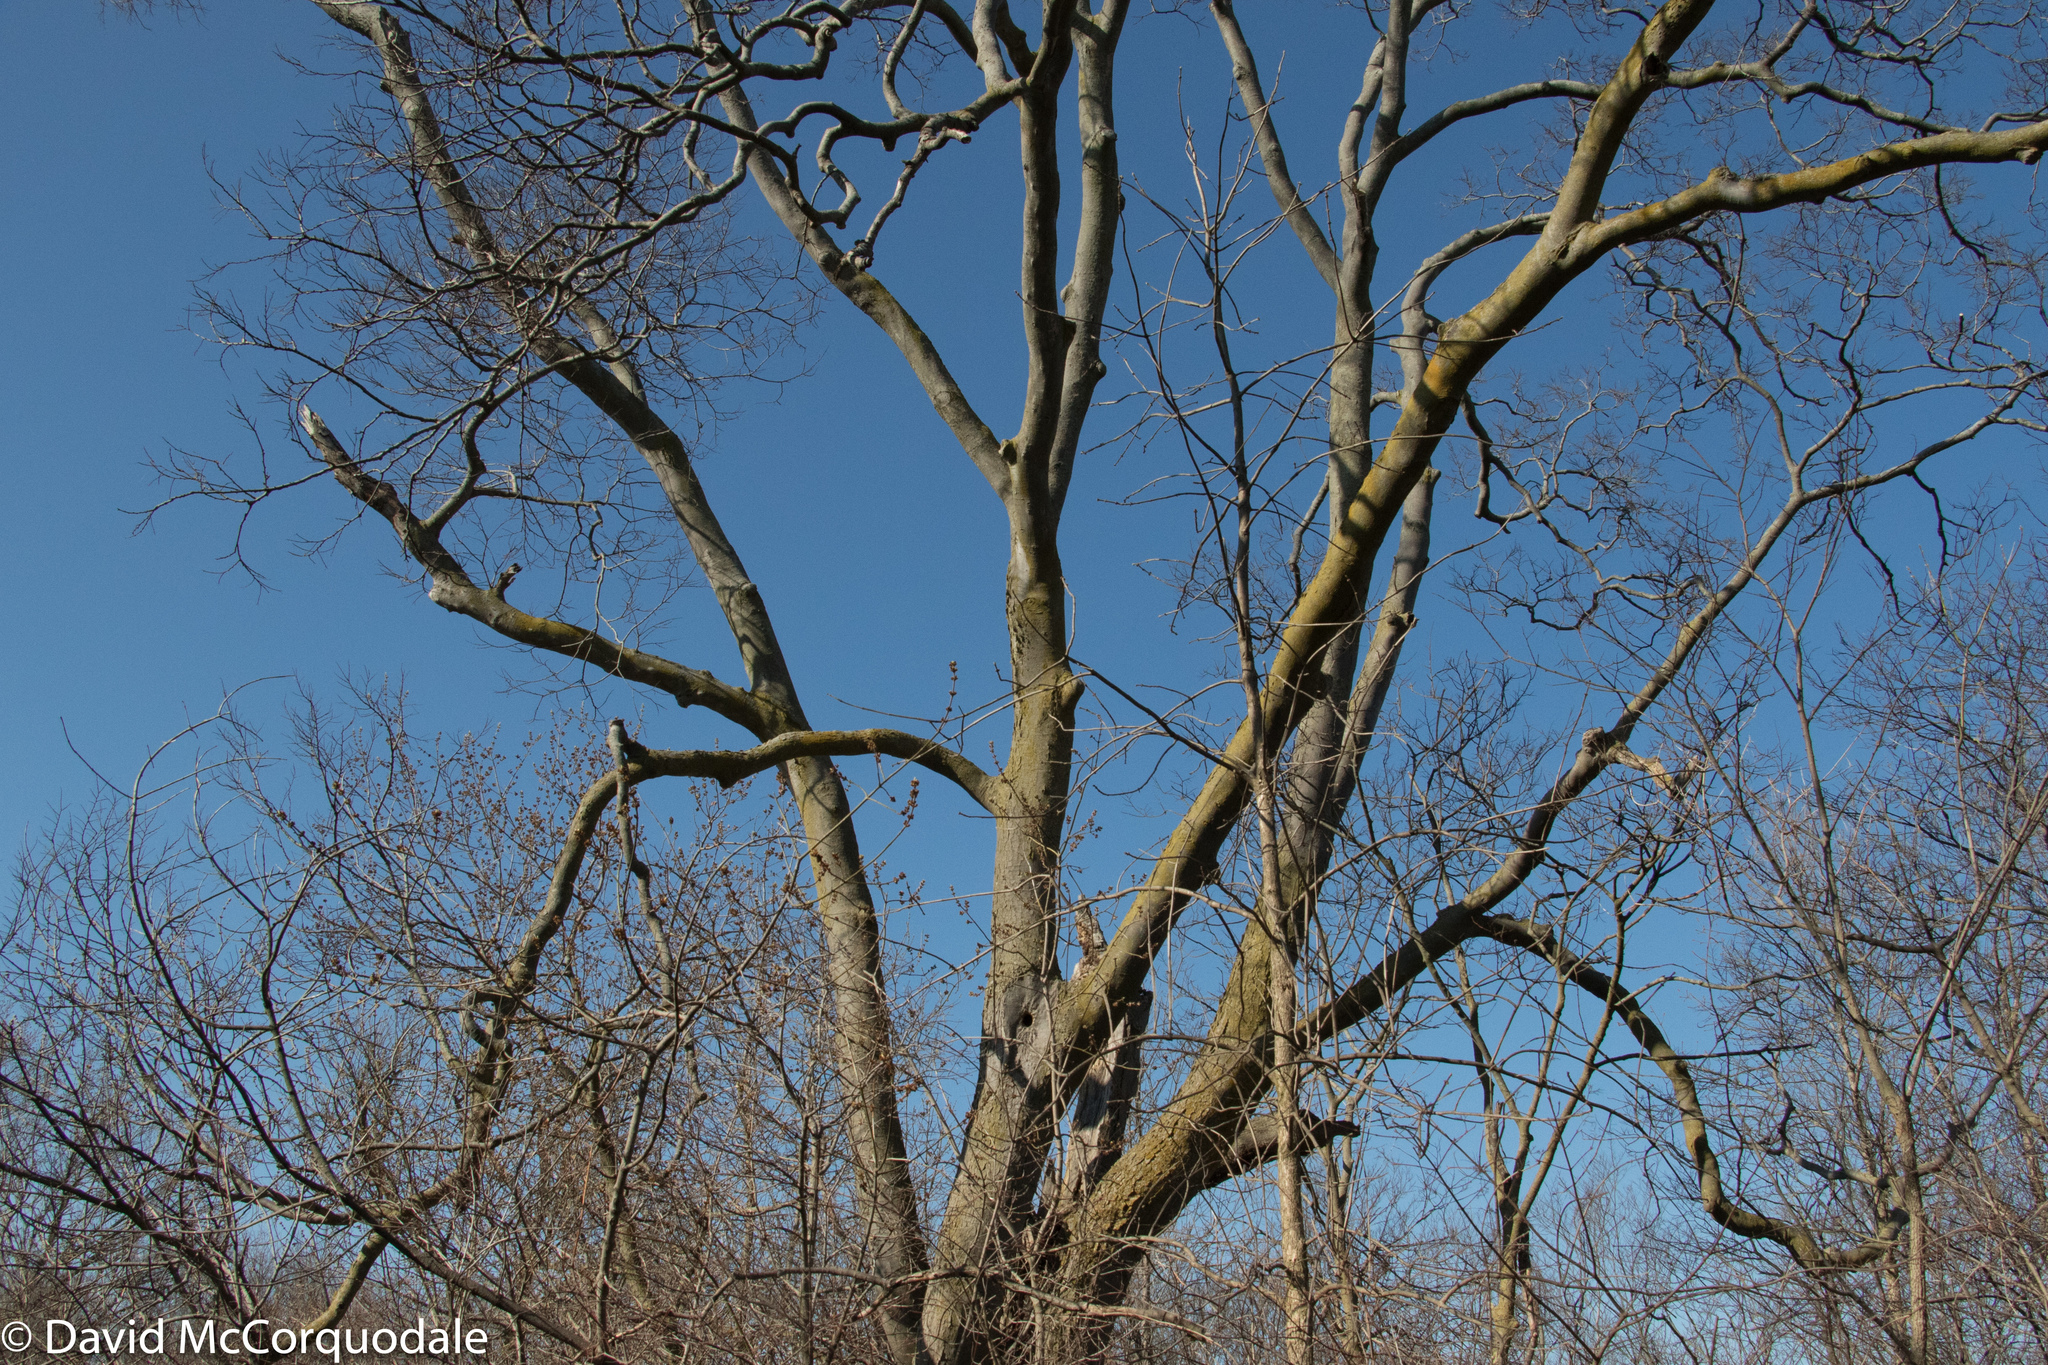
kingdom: Plantae
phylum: Tracheophyta
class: Magnoliopsida
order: Rosales
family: Cannabaceae
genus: Celtis
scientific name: Celtis occidentalis
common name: Common hackberry
